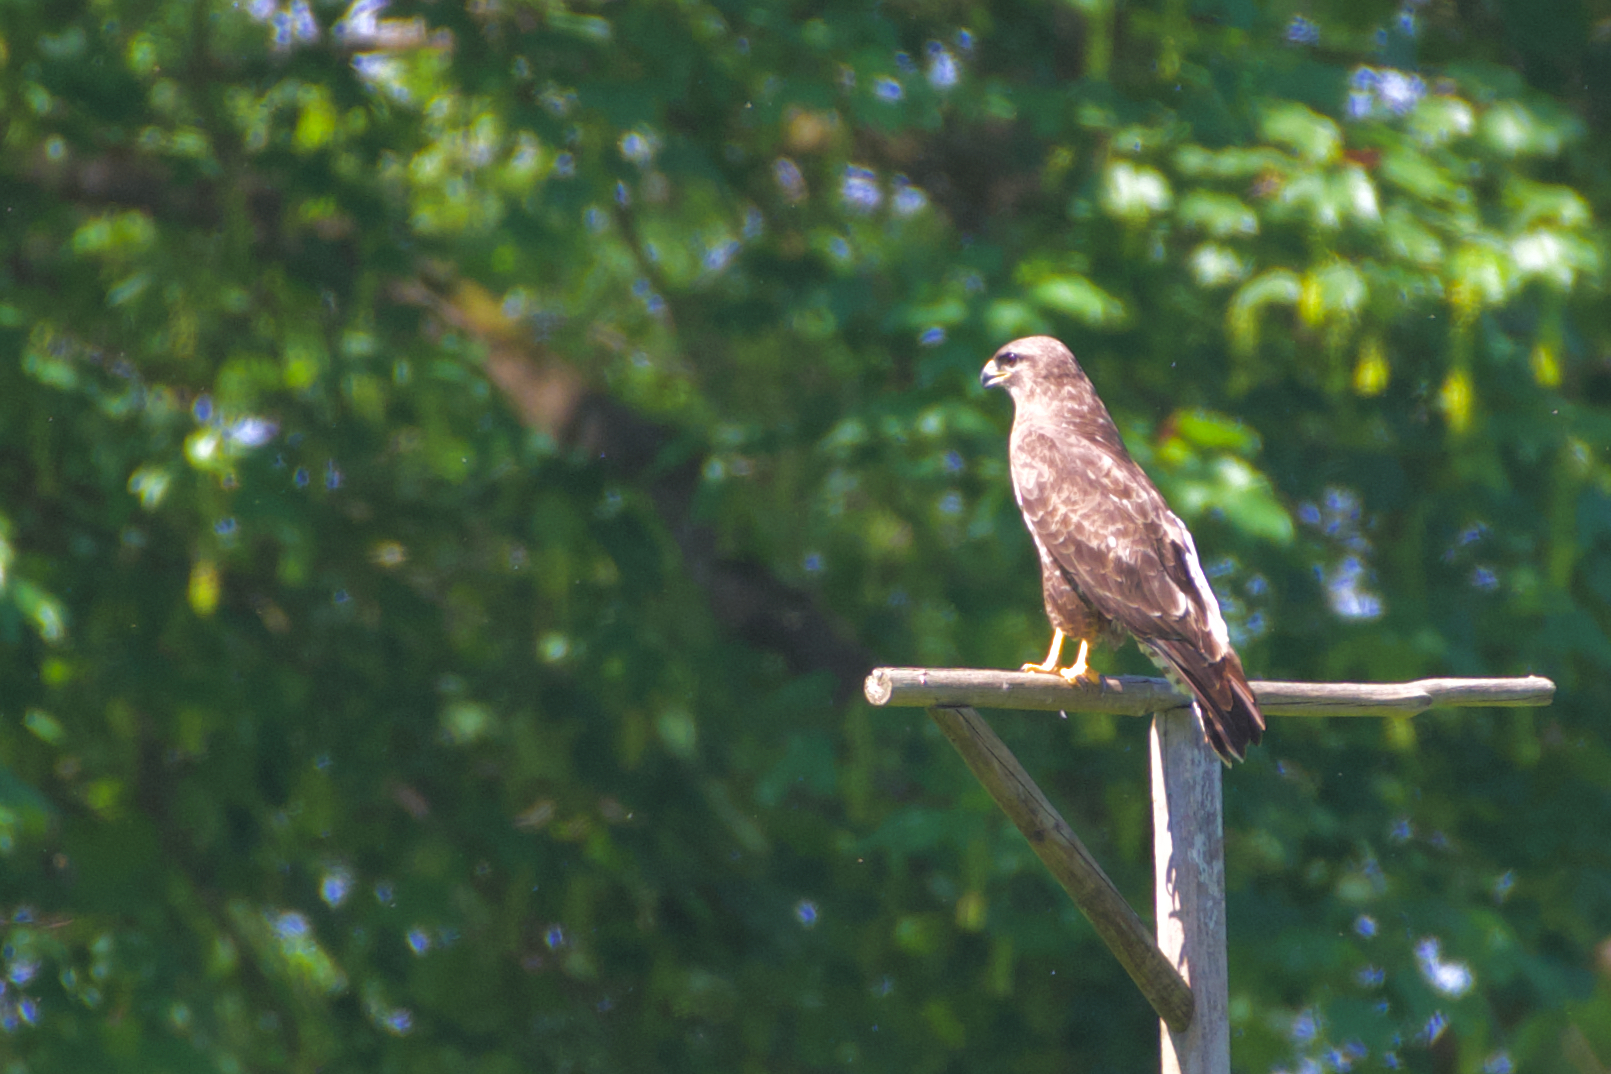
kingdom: Animalia
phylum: Chordata
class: Aves
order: Accipitriformes
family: Accipitridae
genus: Buteo
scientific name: Buteo buteo
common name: Common buzzard
